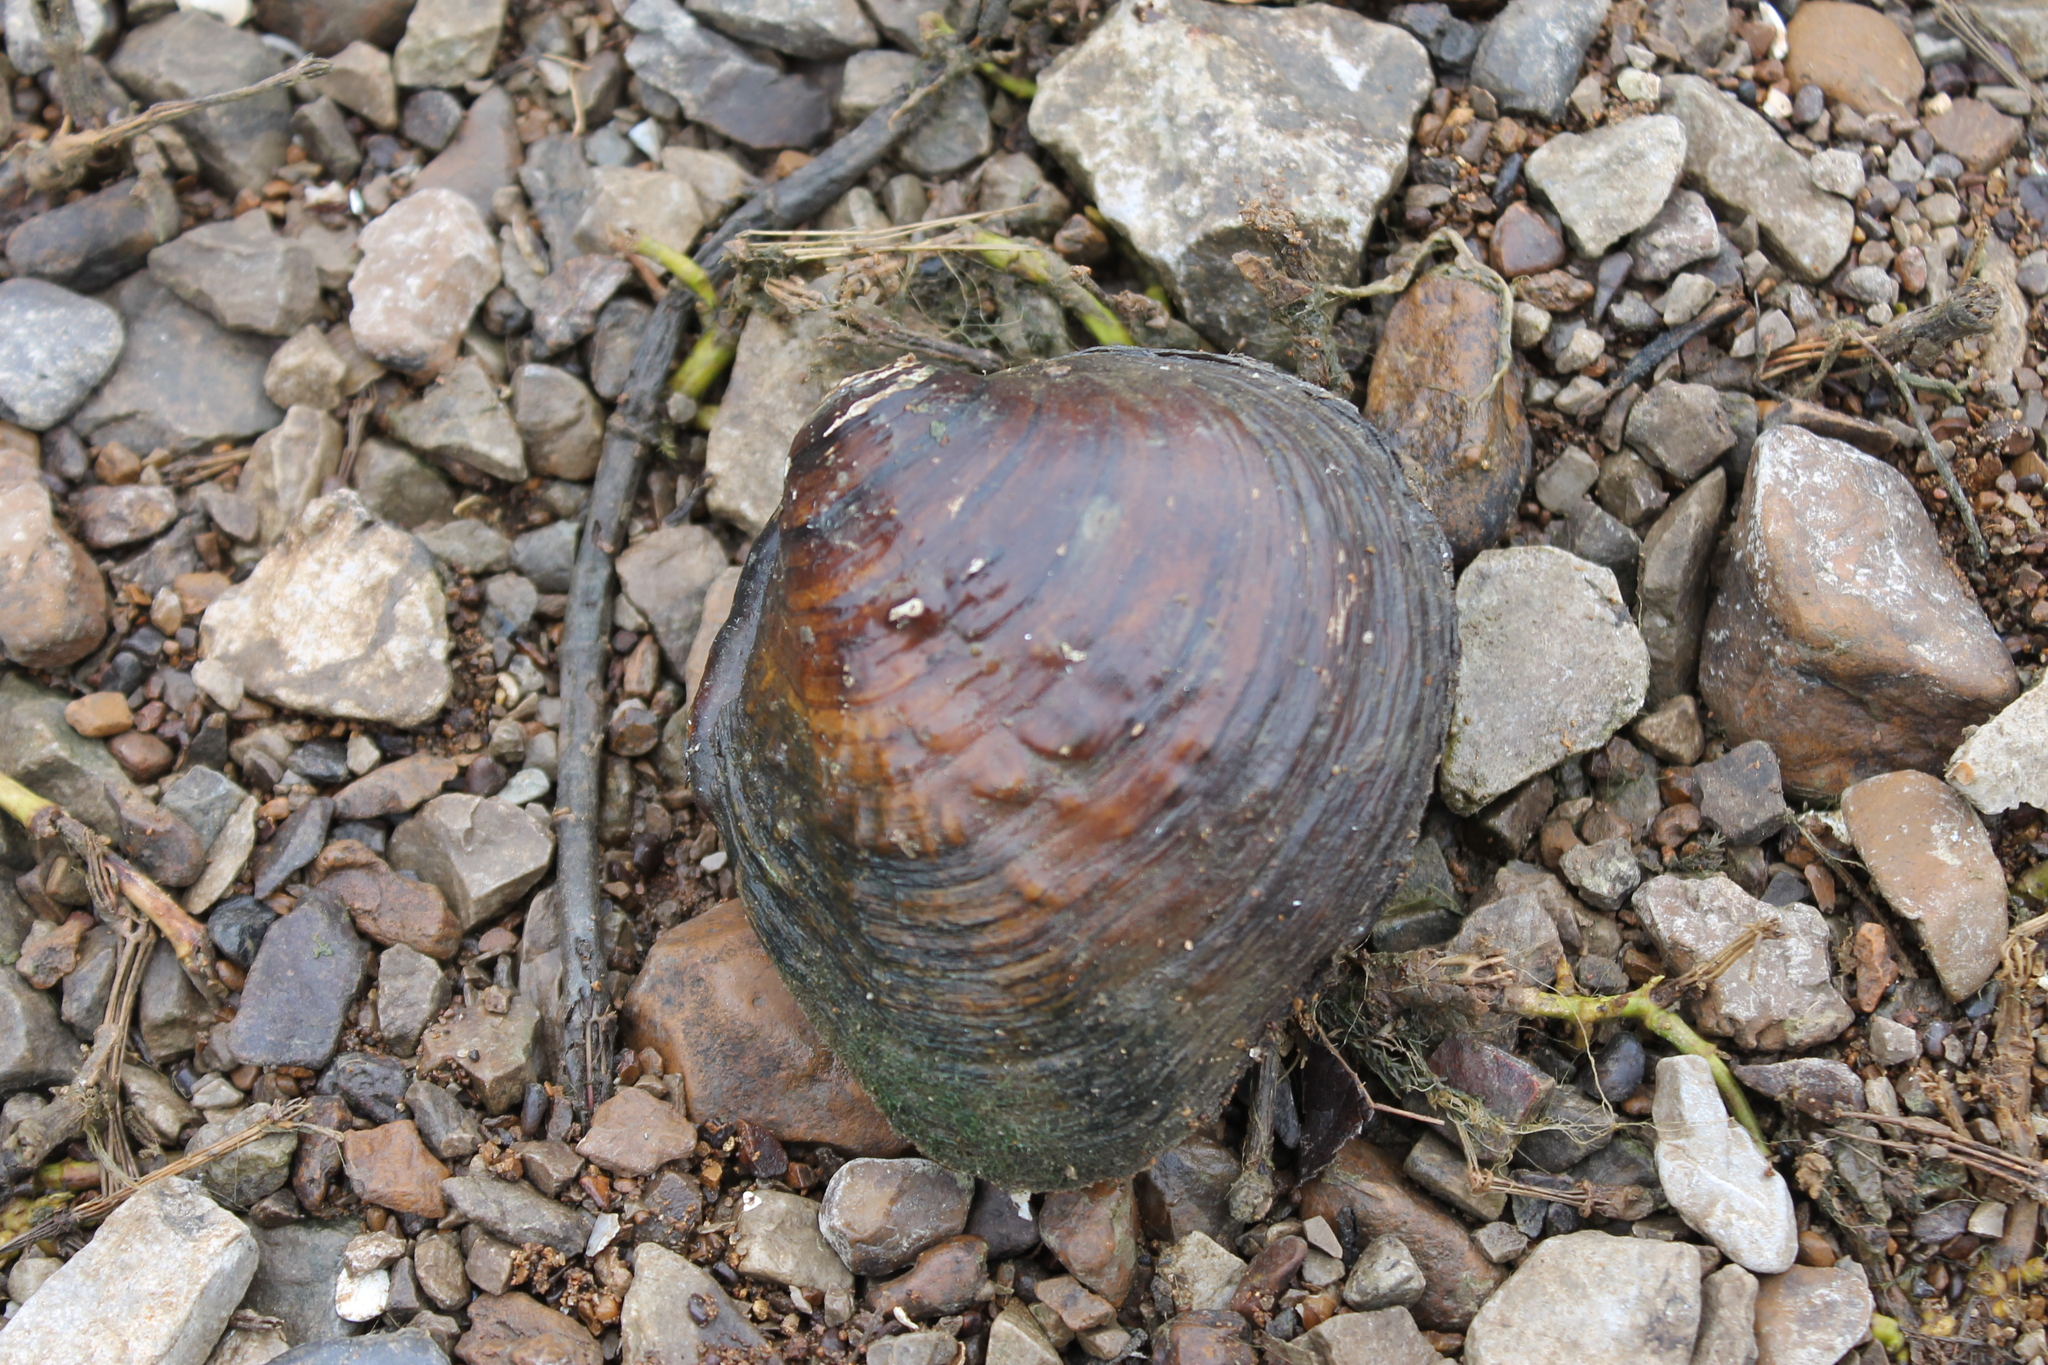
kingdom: Animalia
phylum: Mollusca
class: Bivalvia
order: Unionida
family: Unionidae
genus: Cyclonaias
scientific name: Cyclonaias pustulosa
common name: Pimpleback
